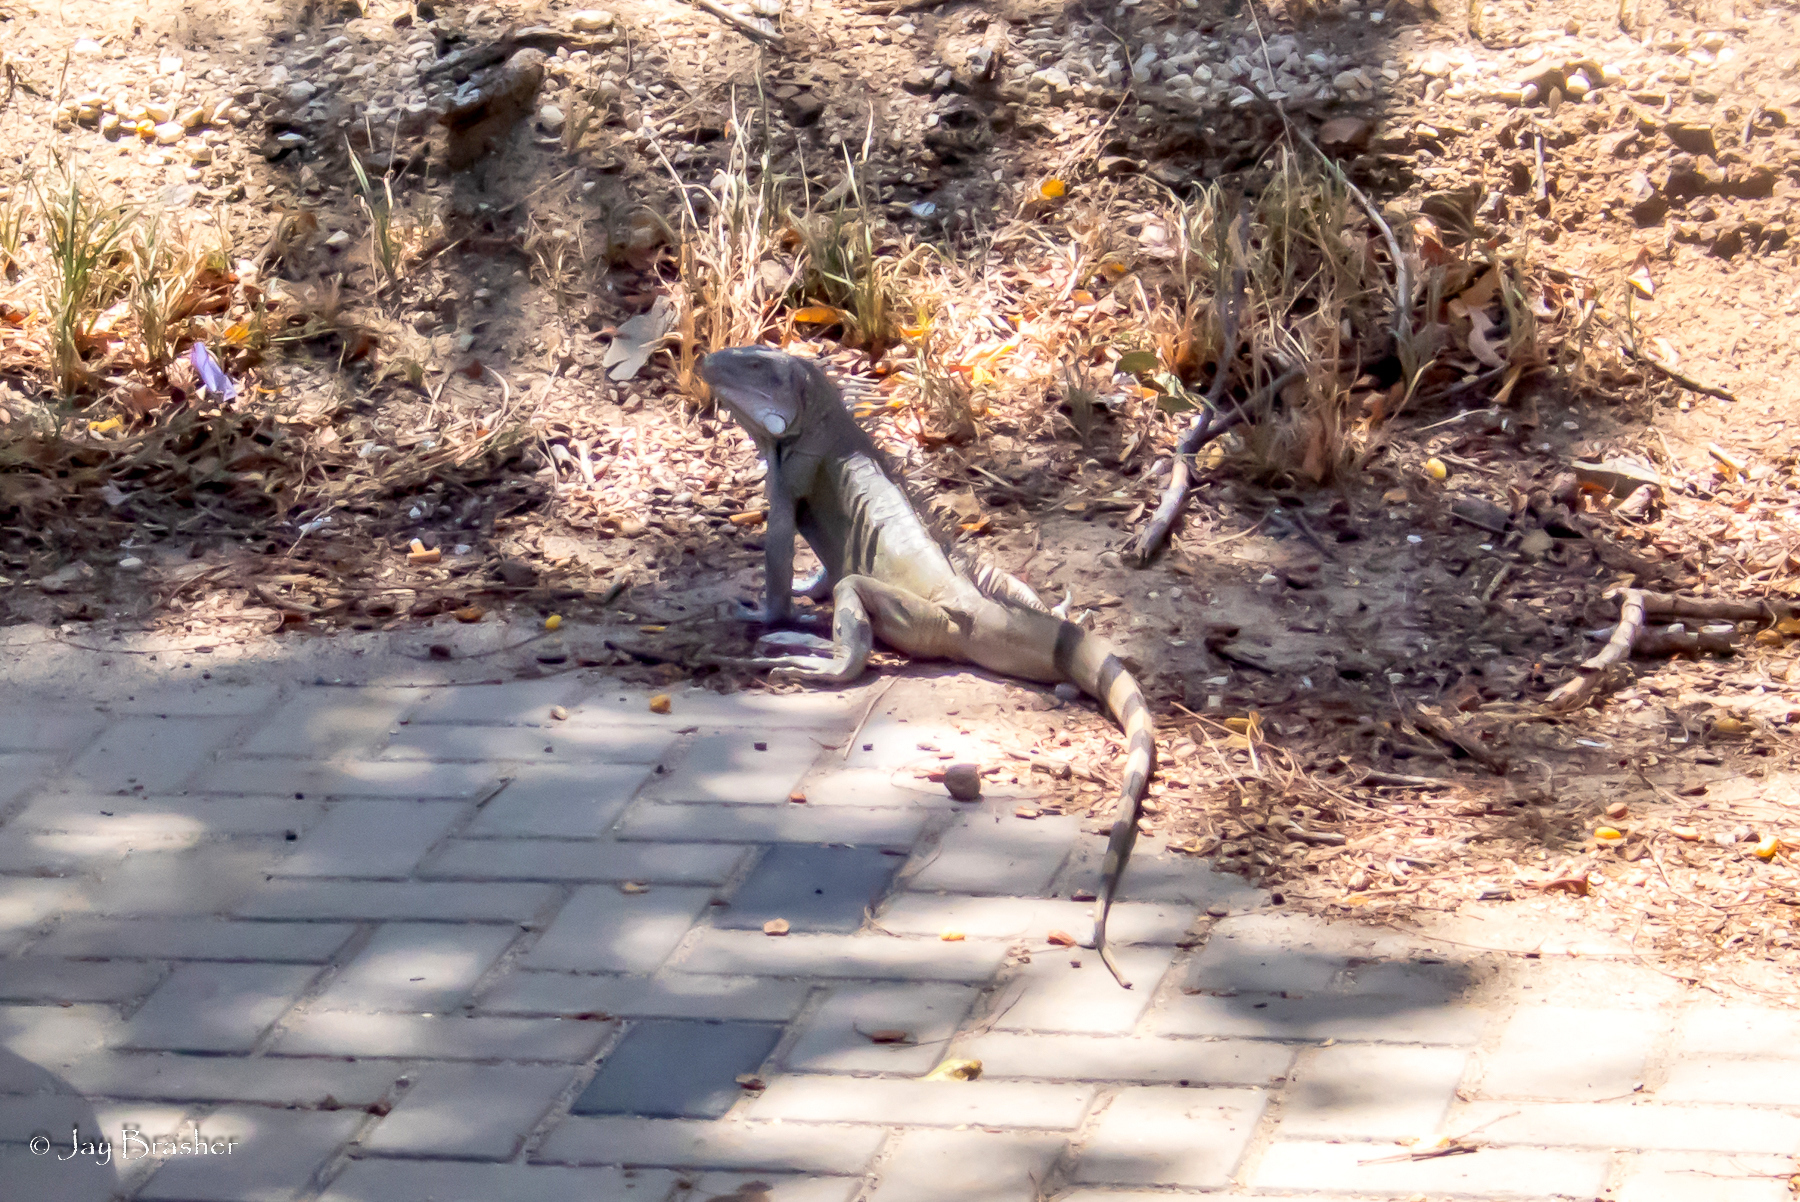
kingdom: Animalia
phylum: Chordata
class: Squamata
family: Iguanidae
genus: Iguana
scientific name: Iguana iguana
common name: Green iguana
